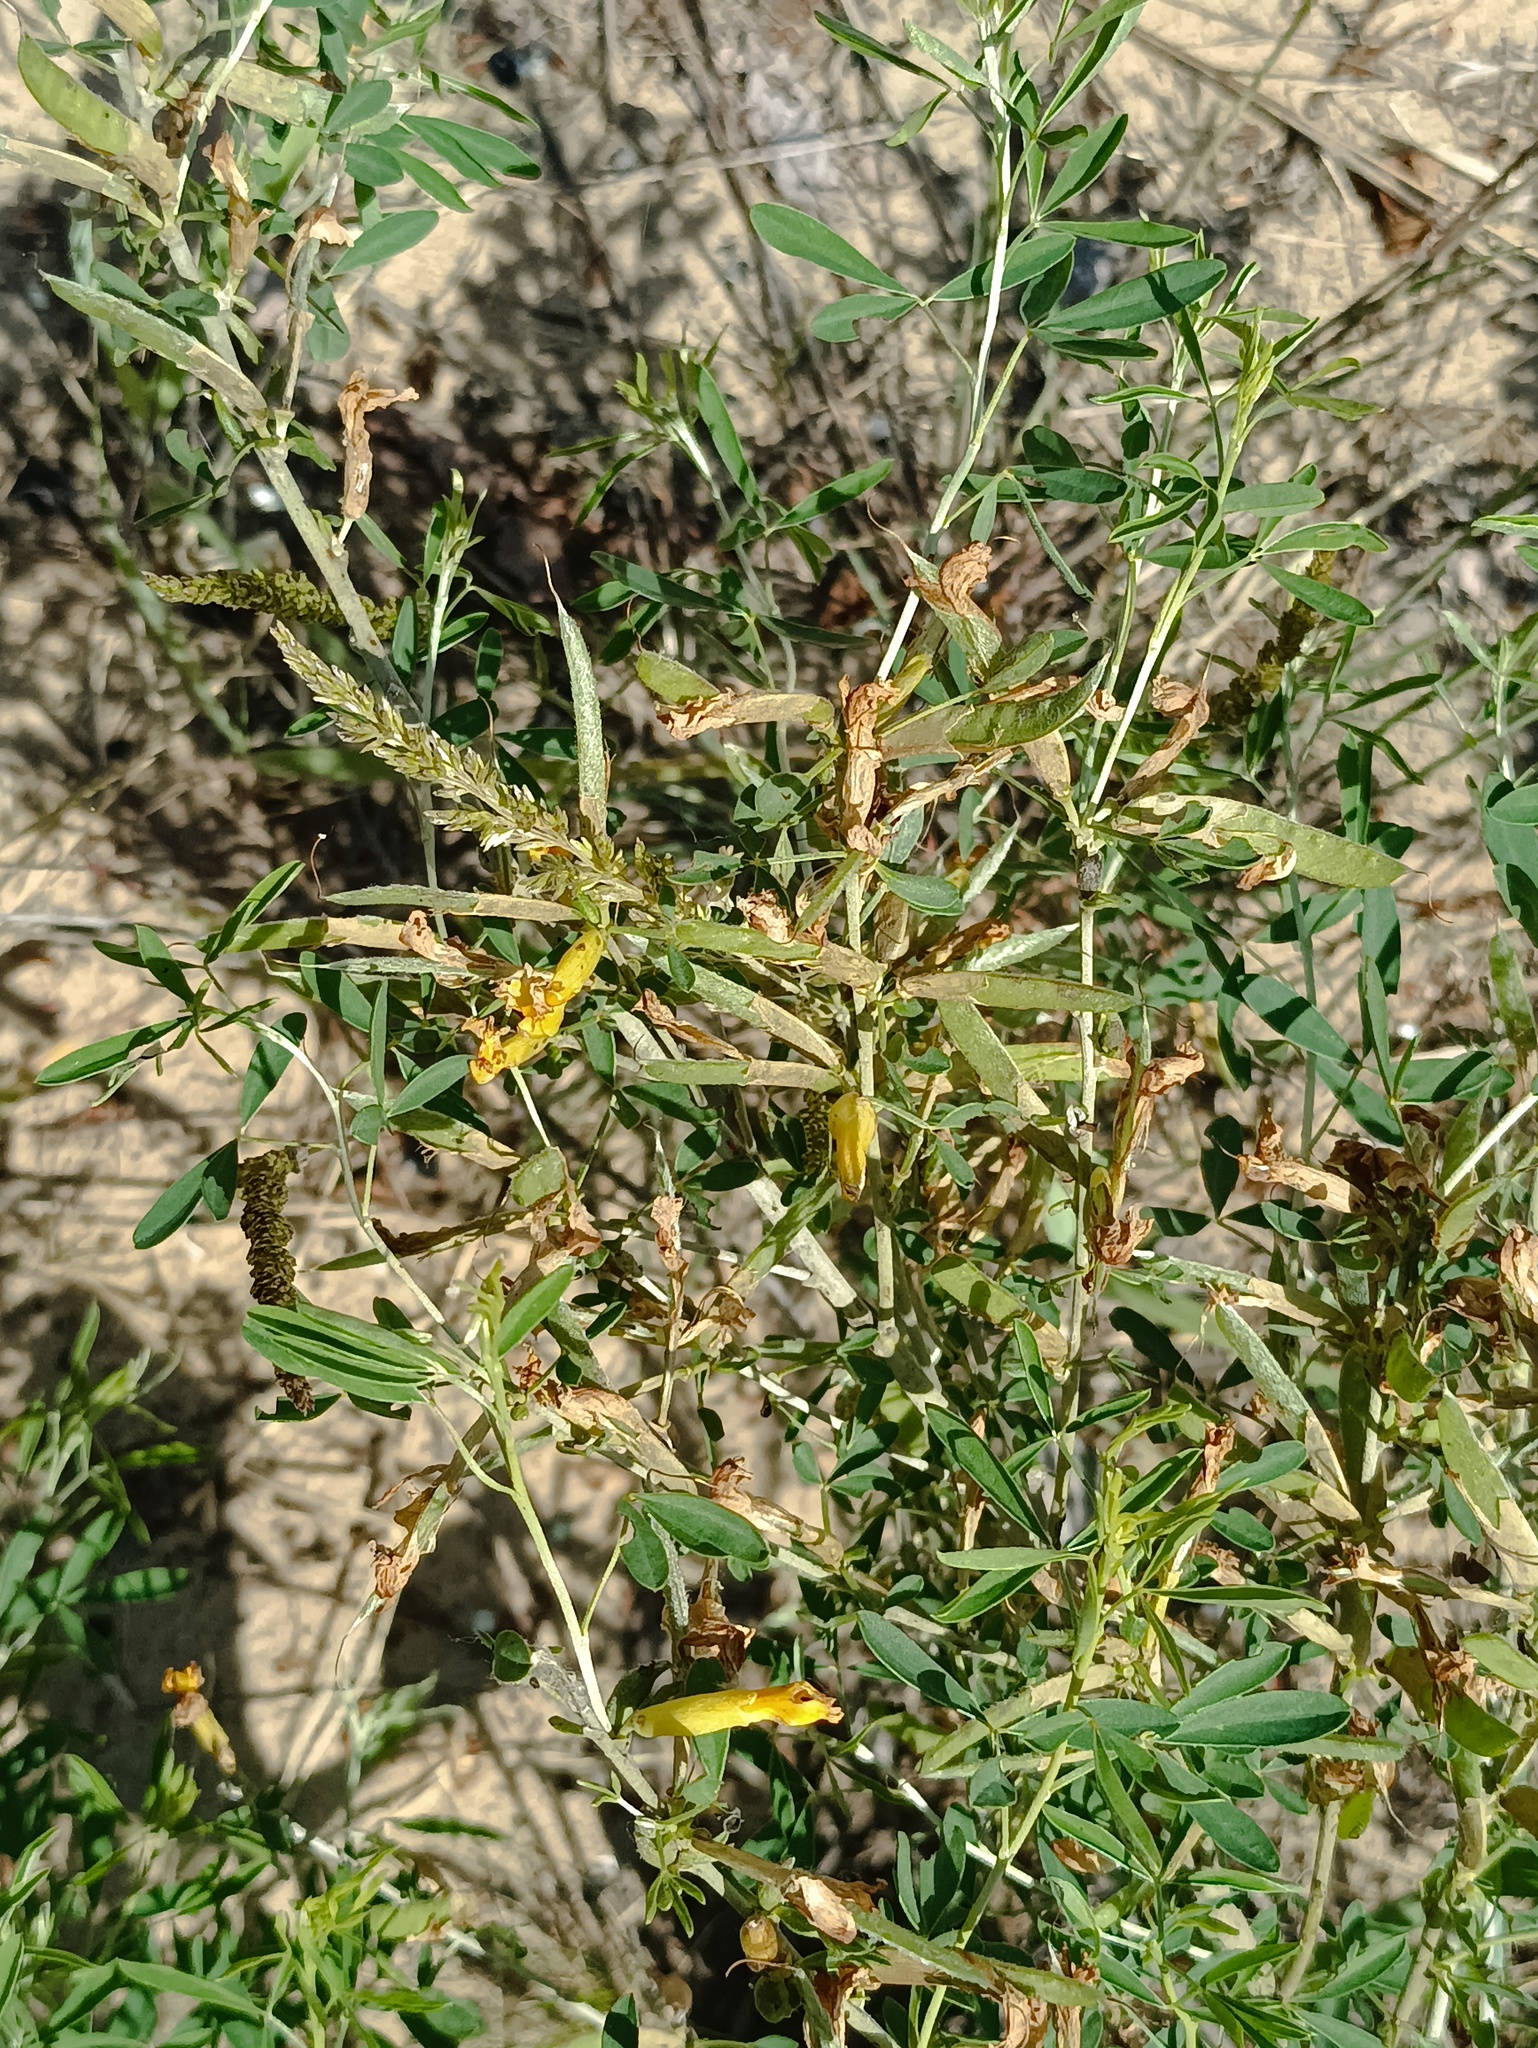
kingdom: Plantae
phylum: Tracheophyta
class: Magnoliopsida
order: Fabales
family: Fabaceae
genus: Chamaecytisus
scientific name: Chamaecytisus ruthenicus
